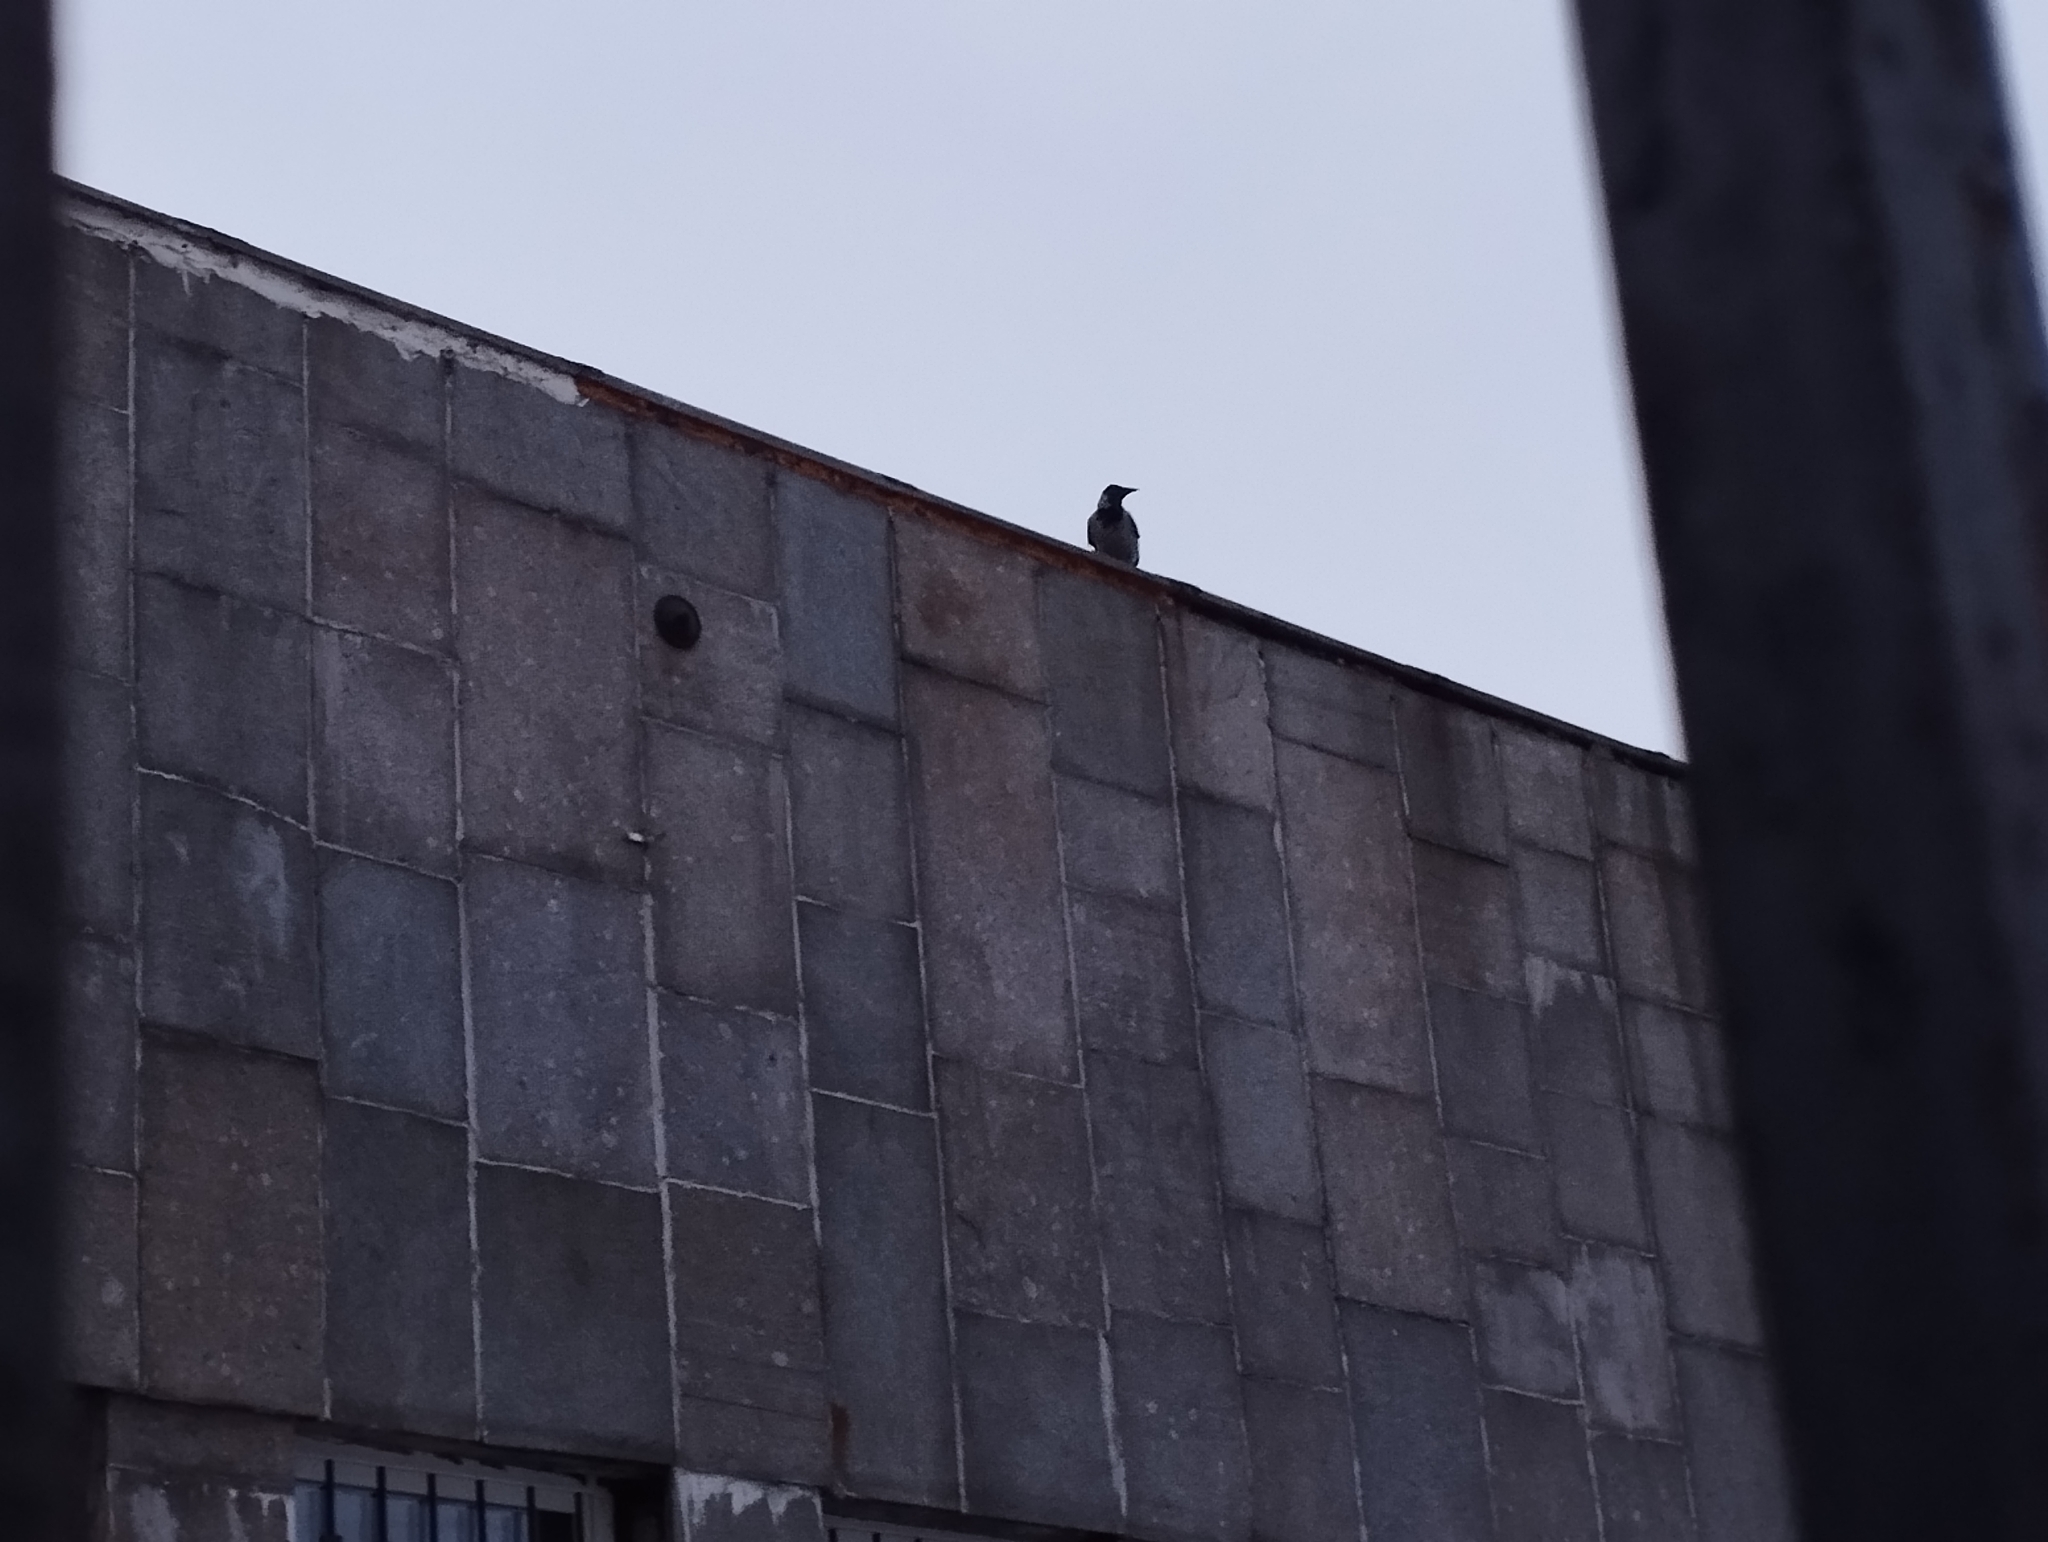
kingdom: Animalia
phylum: Chordata
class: Aves
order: Passeriformes
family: Corvidae
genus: Corvus
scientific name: Corvus cornix
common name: Hooded crow
